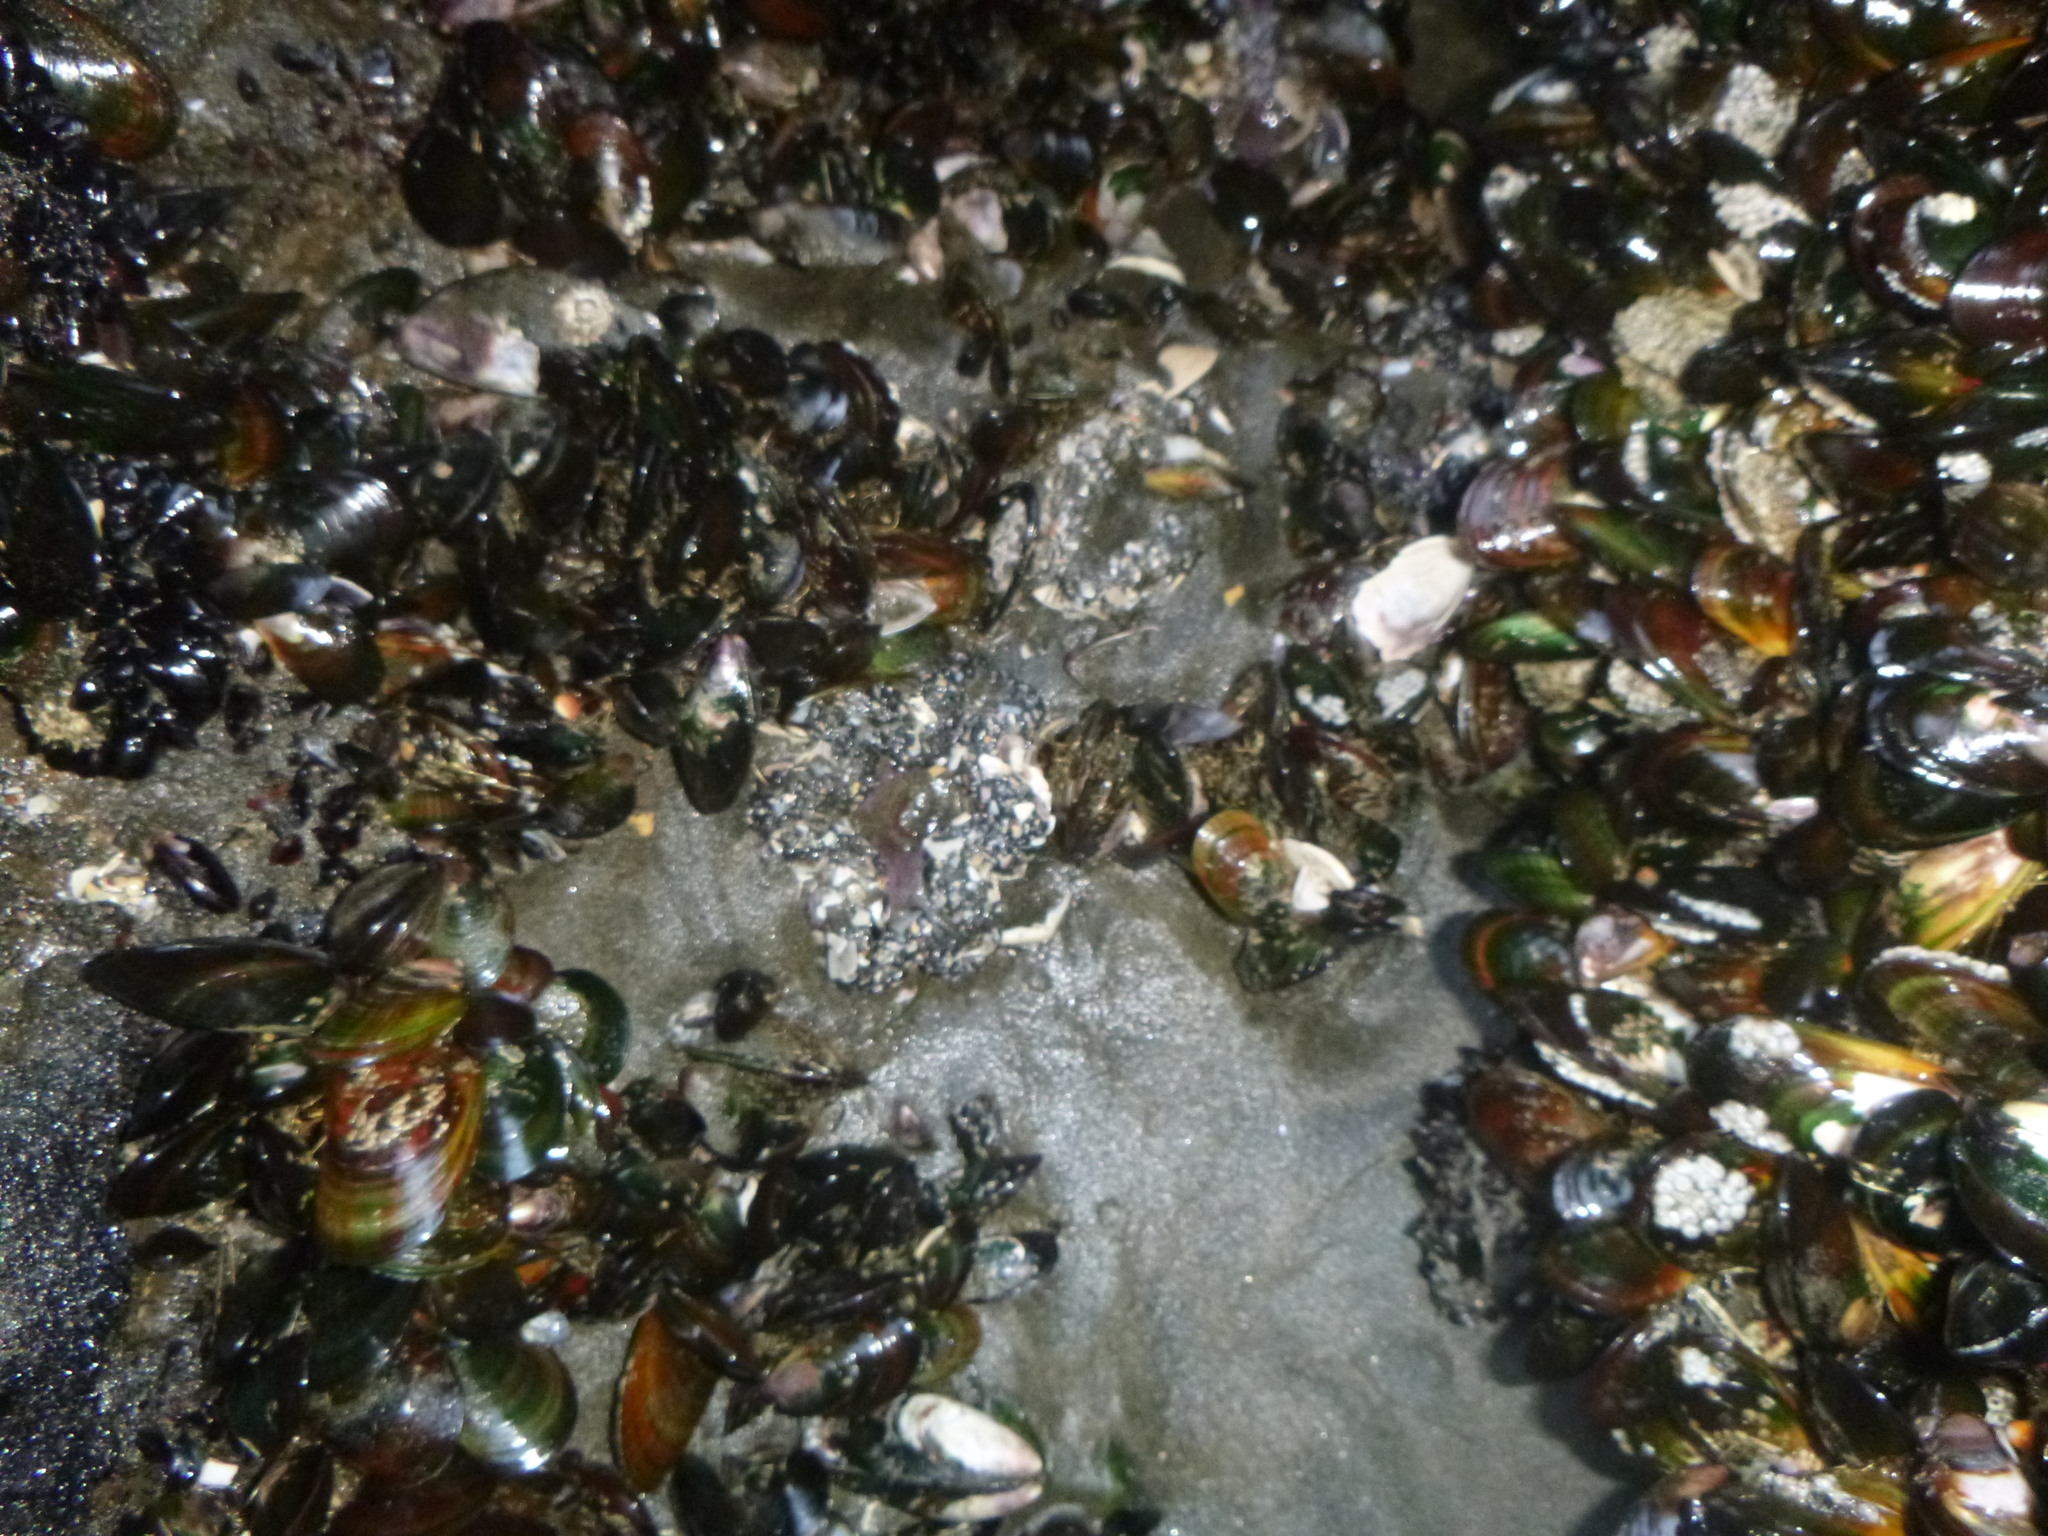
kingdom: Animalia
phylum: Mollusca
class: Bivalvia
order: Mytilida
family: Mytilidae
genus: Perna
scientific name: Perna canaliculus
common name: New zealand greenshelltm
